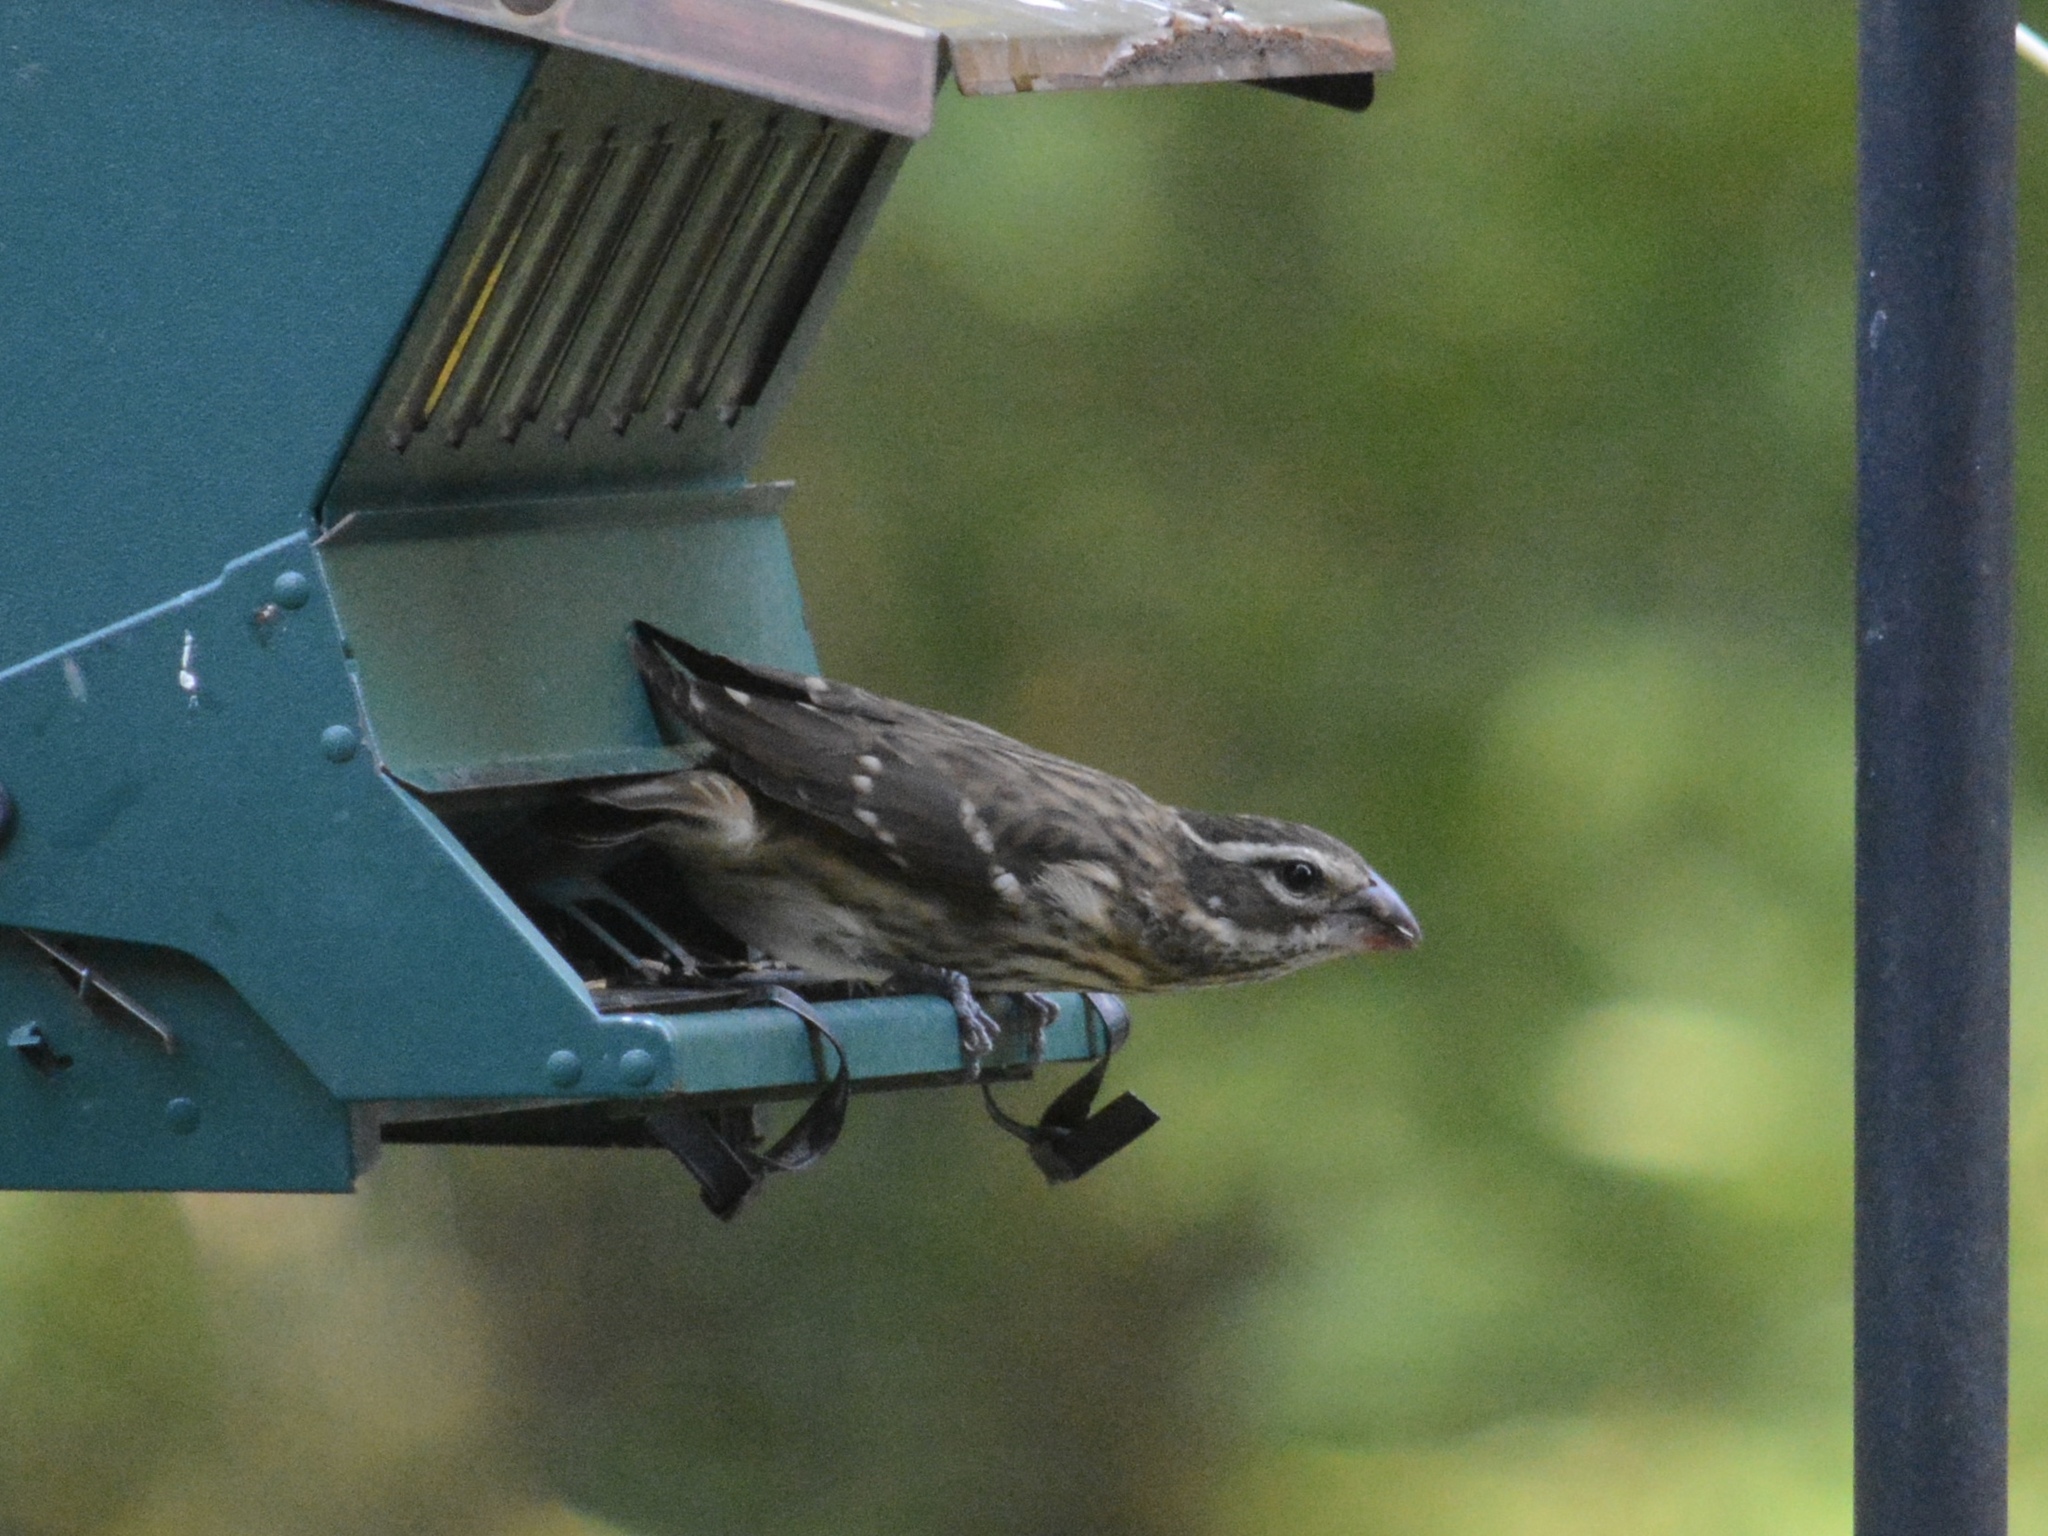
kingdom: Animalia
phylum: Chordata
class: Aves
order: Passeriformes
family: Cardinalidae
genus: Pheucticus
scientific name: Pheucticus ludovicianus
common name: Rose-breasted grosbeak
